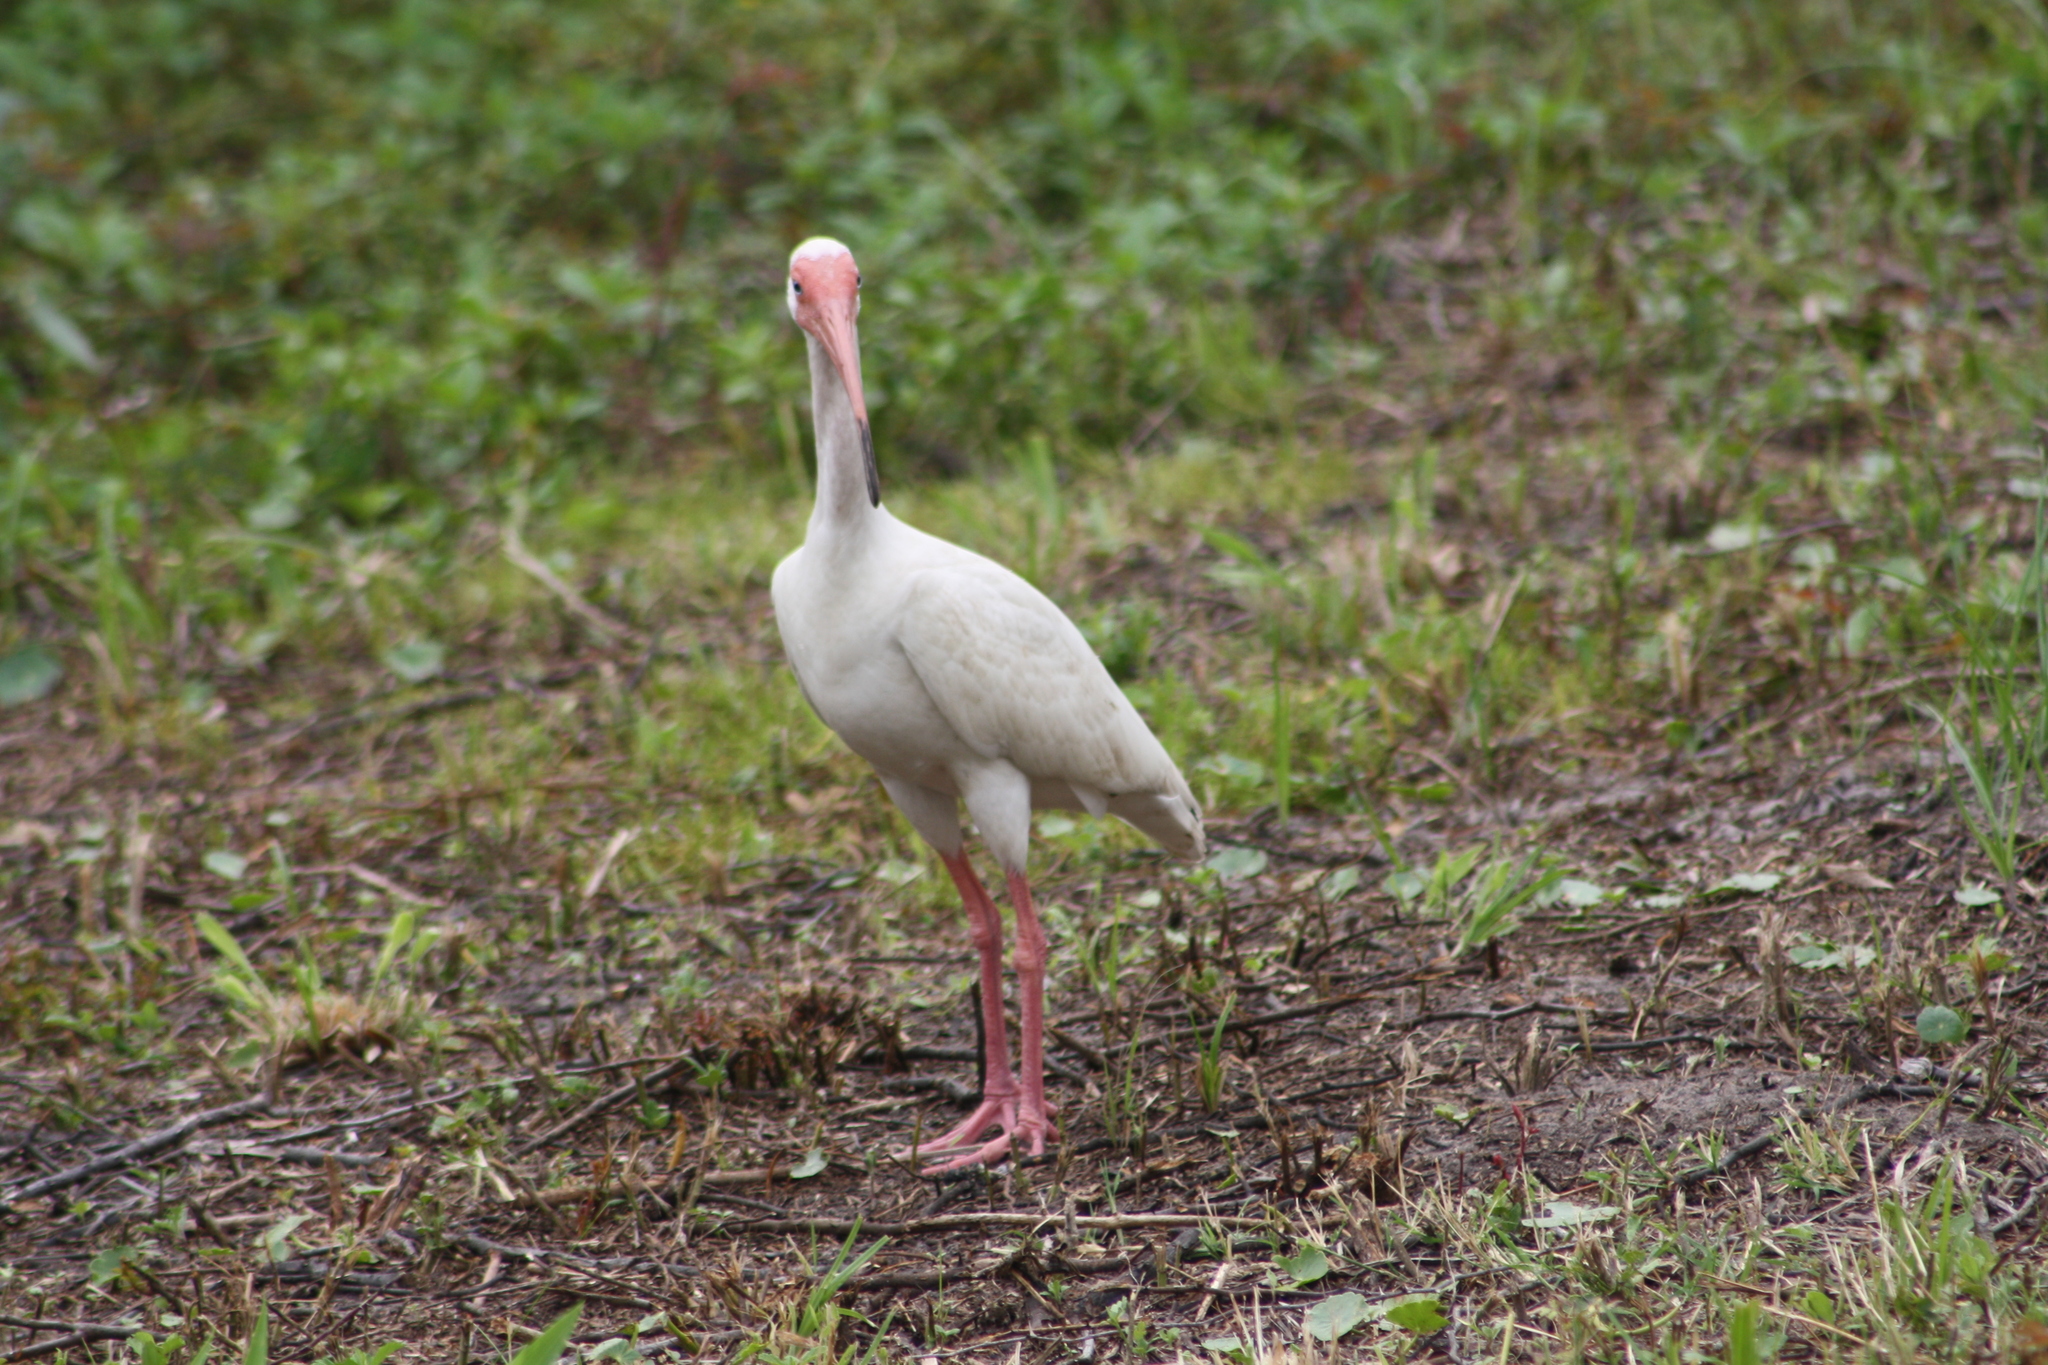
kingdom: Animalia
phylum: Chordata
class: Aves
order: Pelecaniformes
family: Threskiornithidae
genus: Eudocimus
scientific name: Eudocimus albus
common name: White ibis
